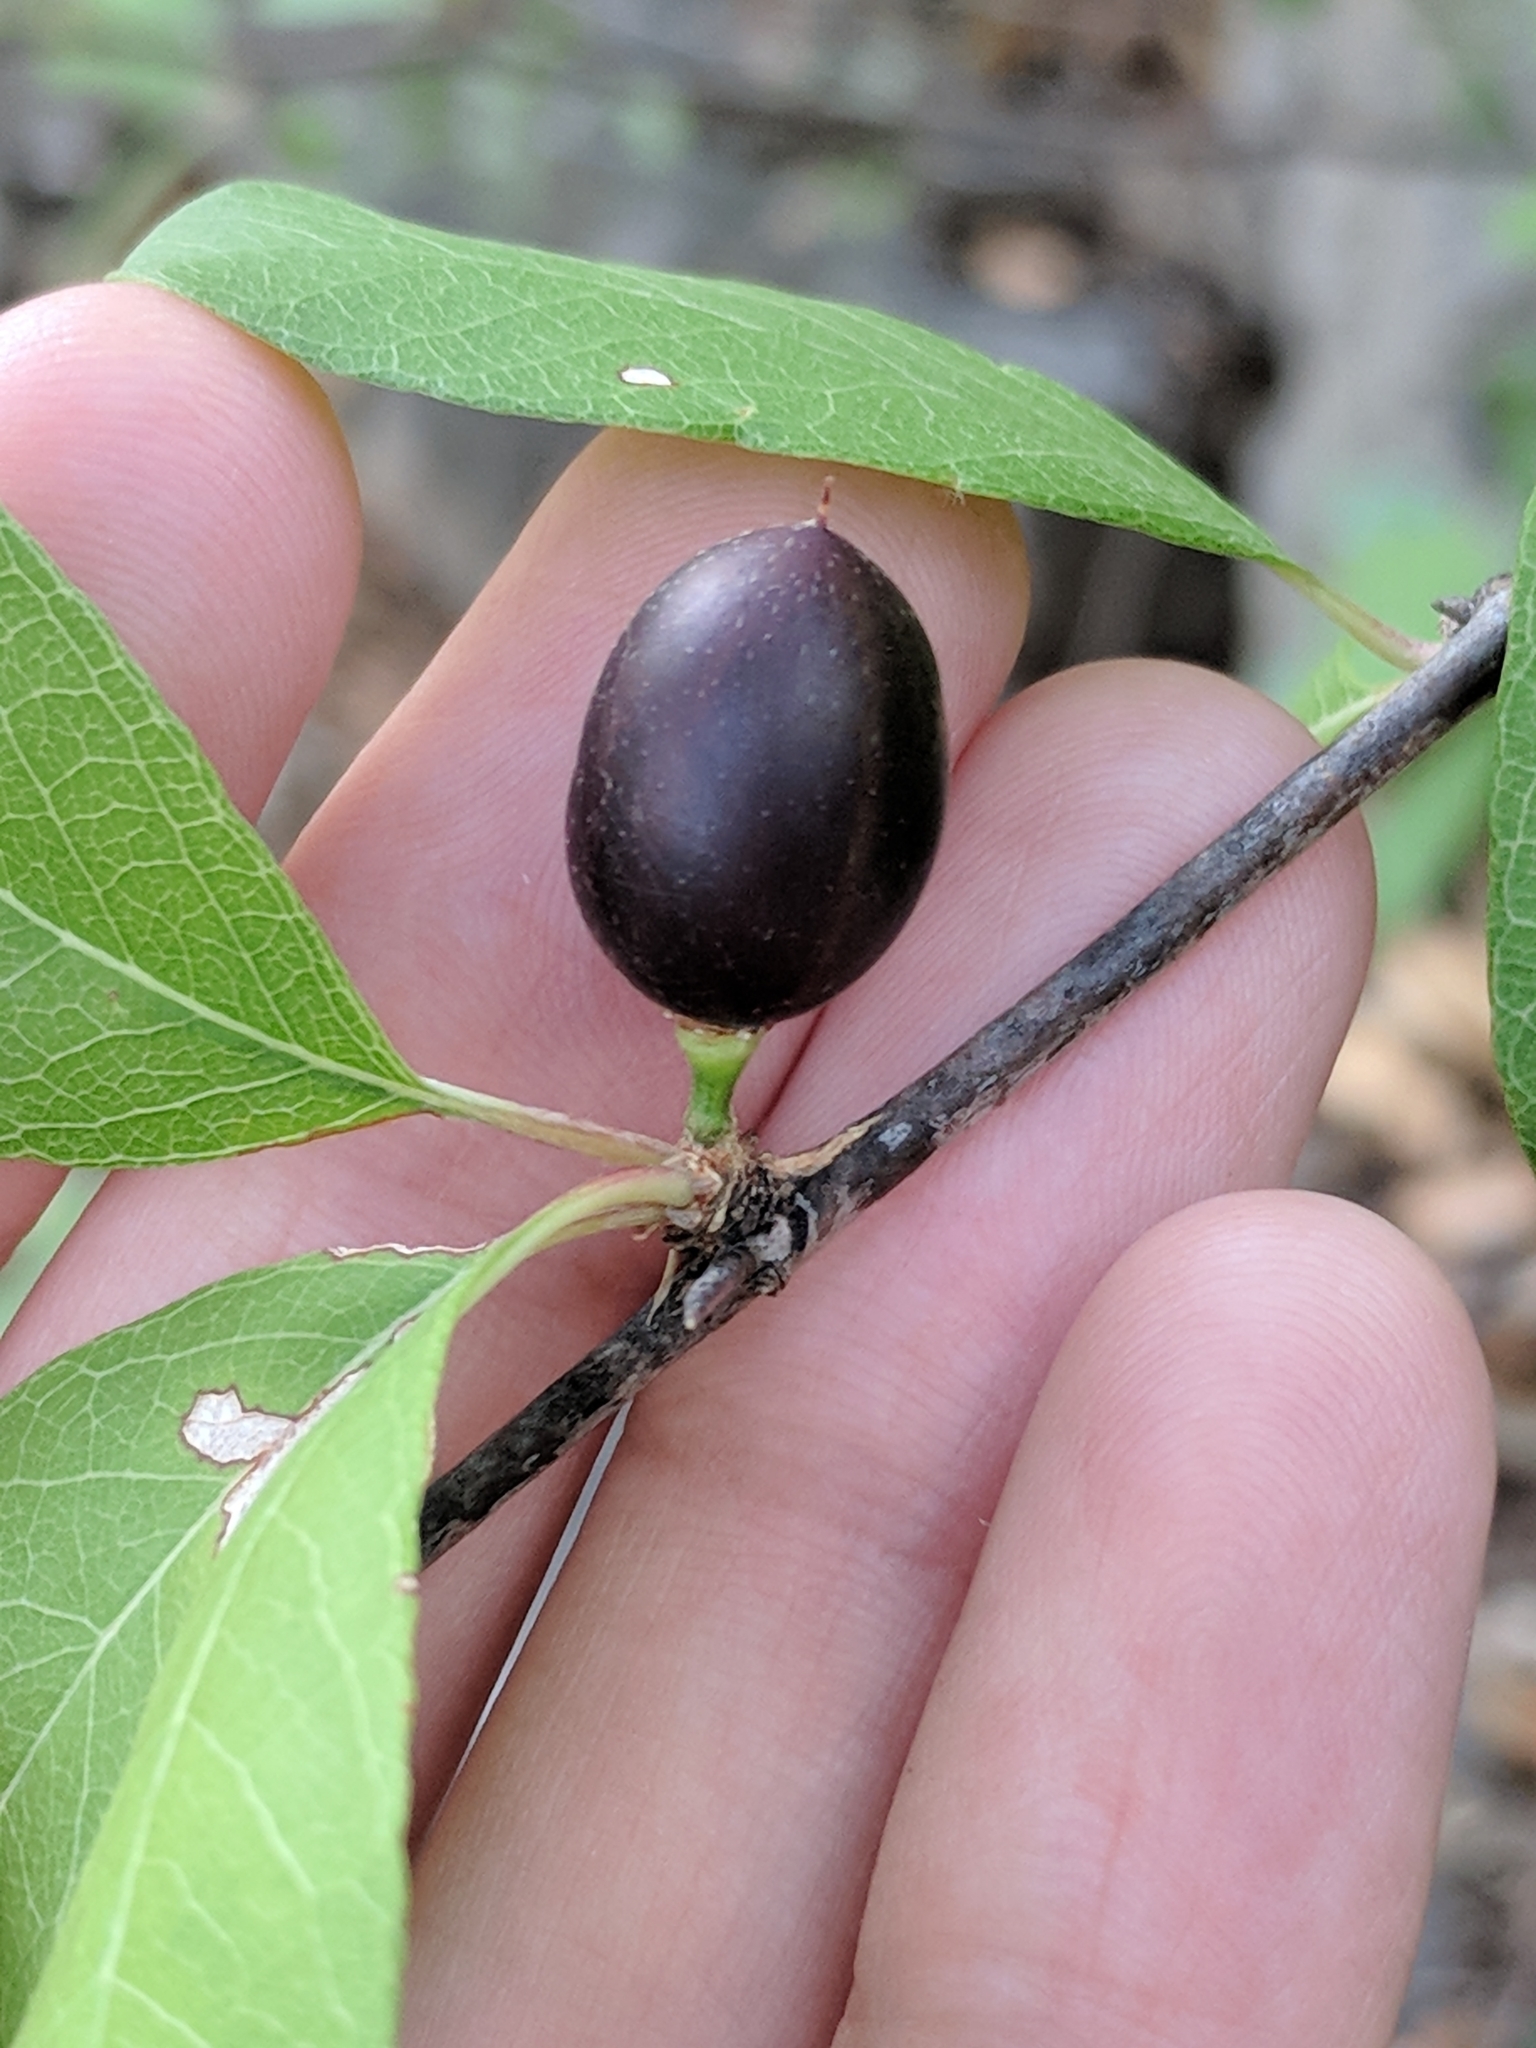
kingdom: Plantae
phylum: Tracheophyta
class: Magnoliopsida
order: Ericales
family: Sapotaceae
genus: Sideroxylon
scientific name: Sideroxylon lanuginosum
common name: Chittamwood
